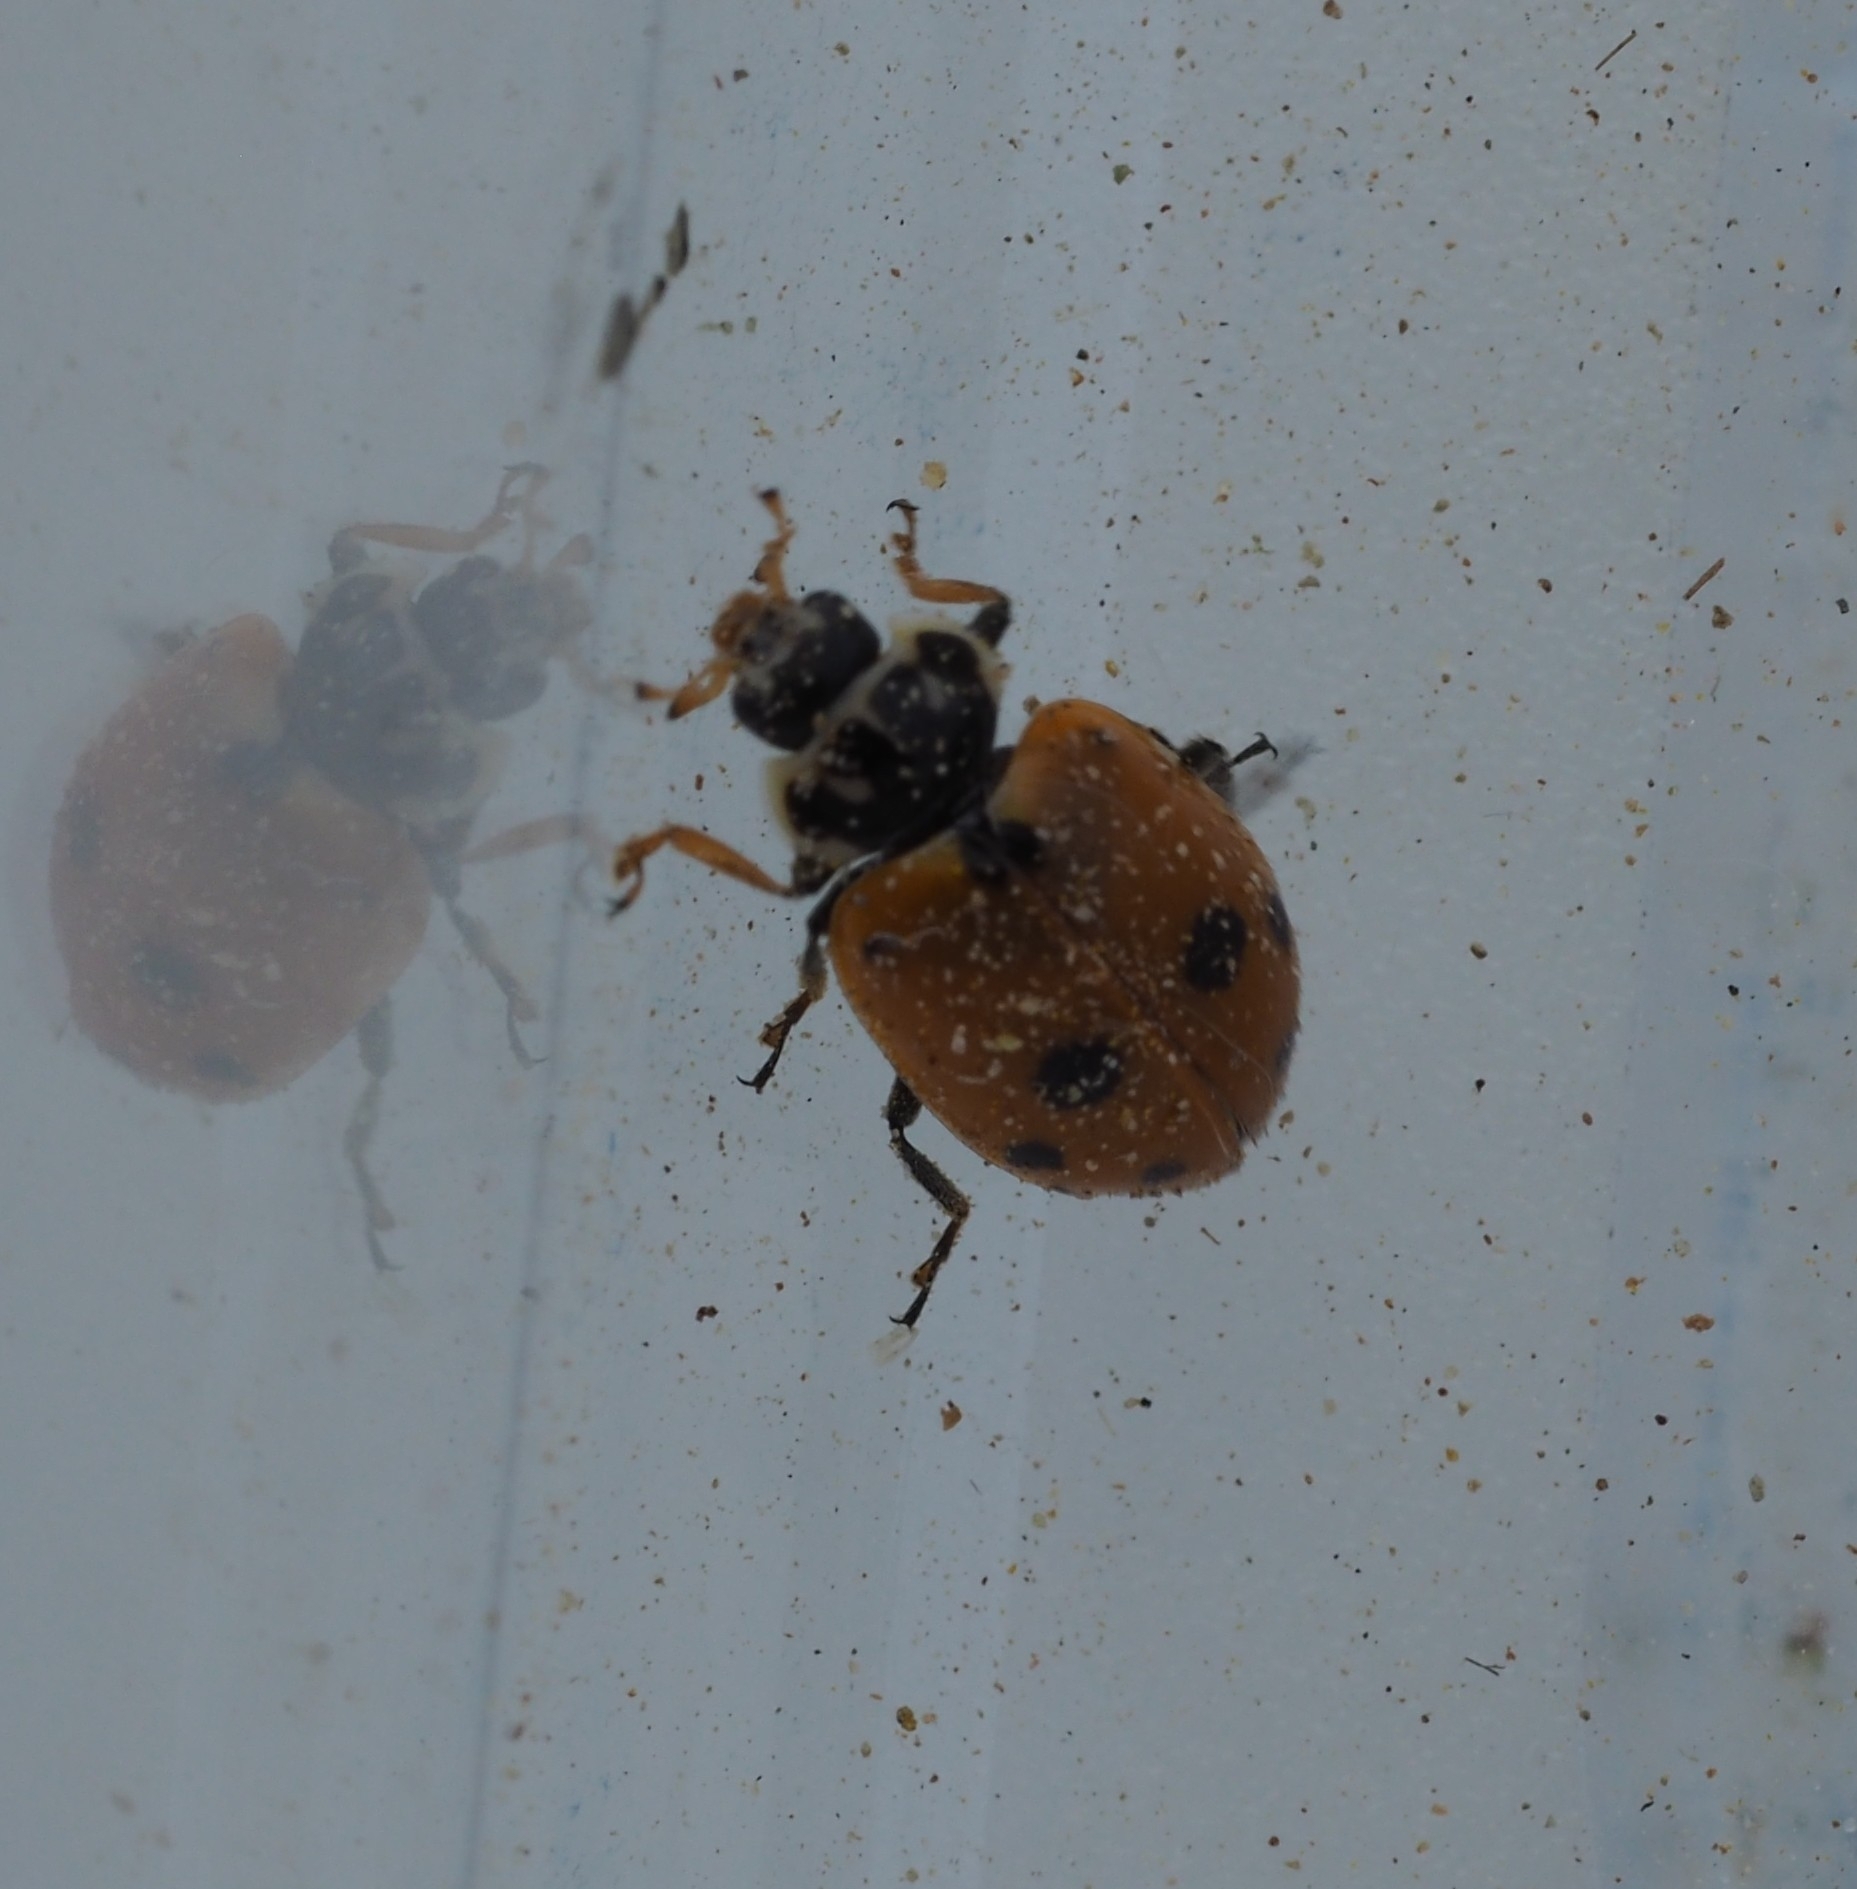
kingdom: Animalia
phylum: Arthropoda
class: Insecta
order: Coleoptera
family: Coccinellidae
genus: Hippodamia
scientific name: Hippodamia variegata
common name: Ladybird beetle
